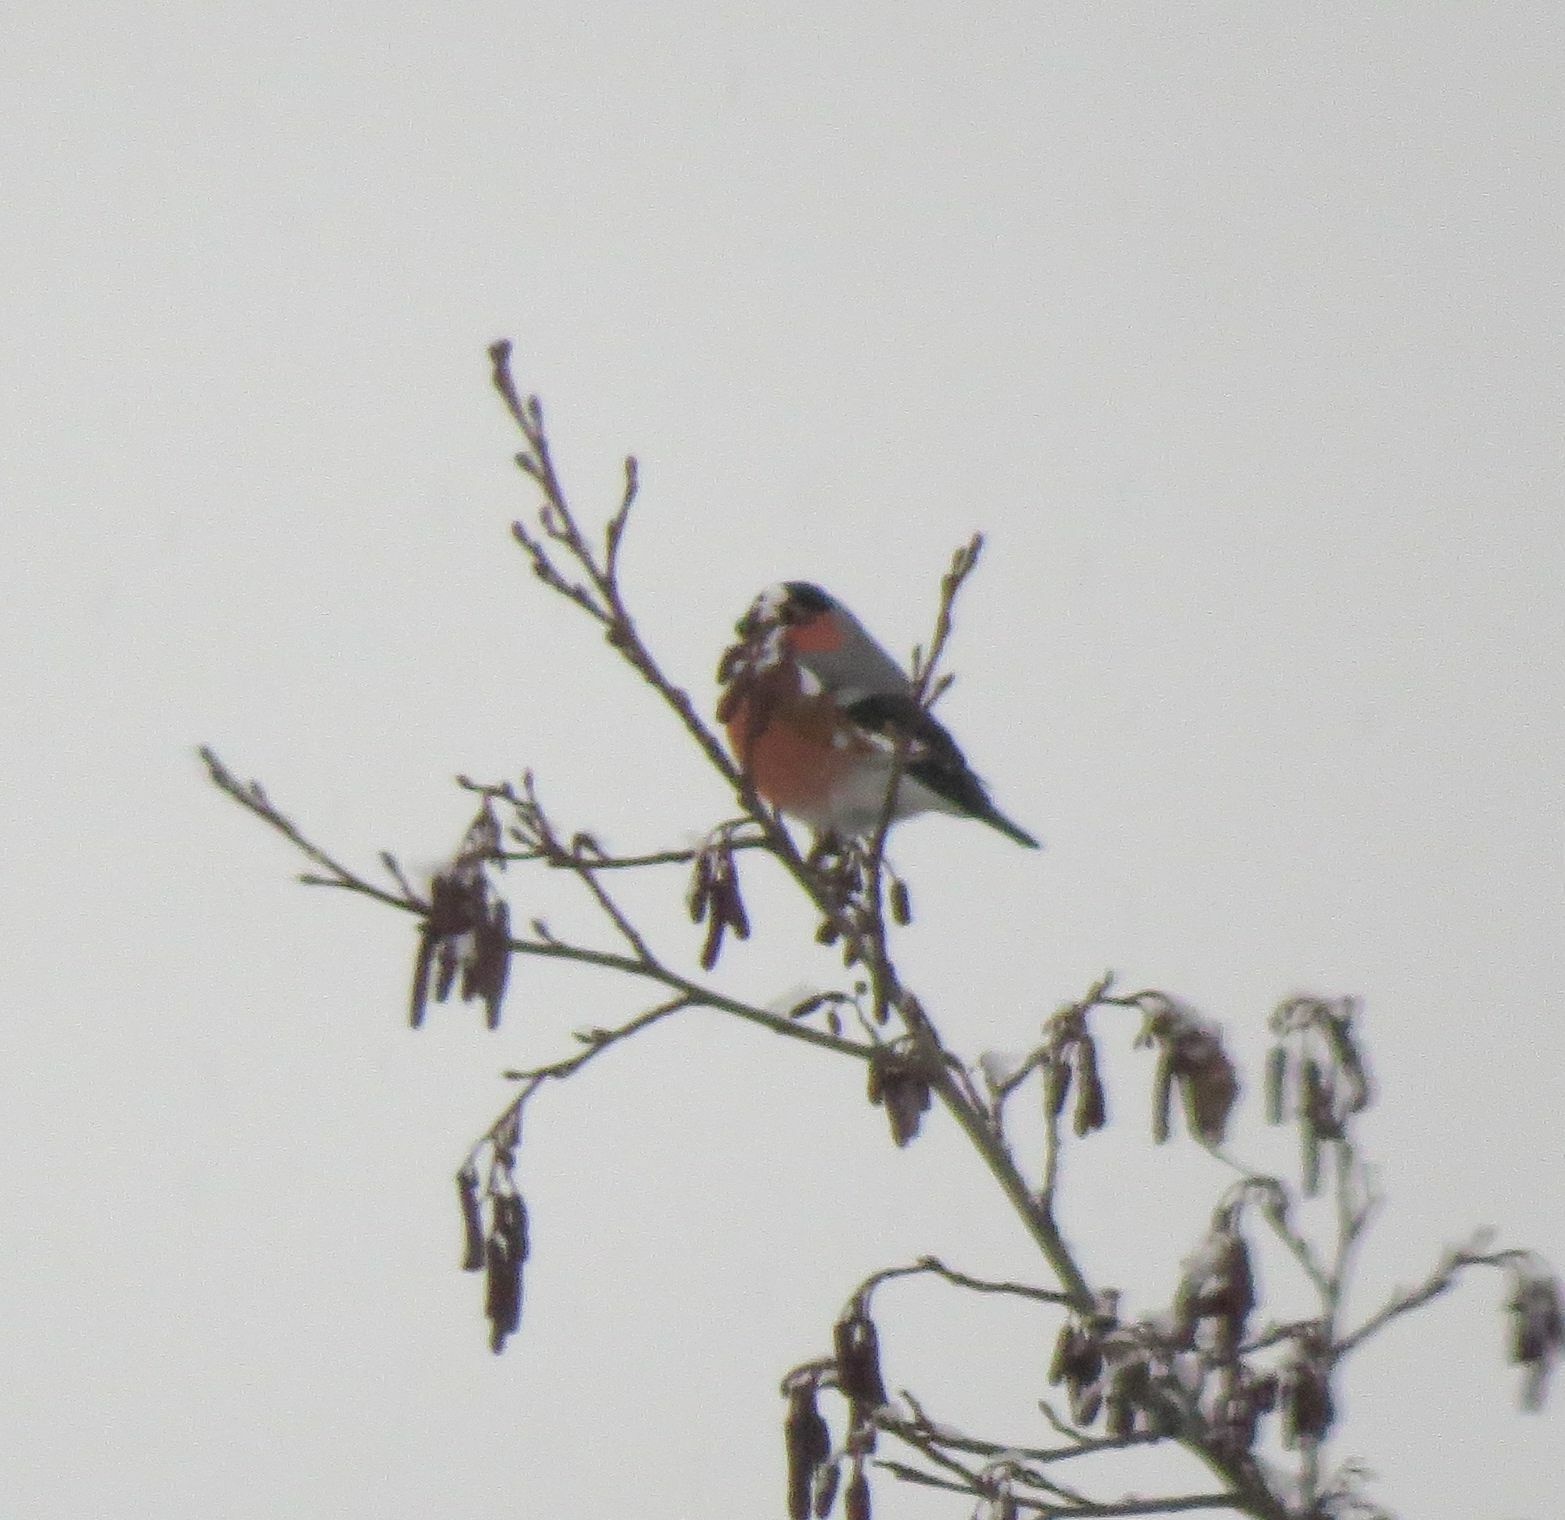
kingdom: Animalia
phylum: Chordata
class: Aves
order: Passeriformes
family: Fringillidae
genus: Pyrrhula
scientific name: Pyrrhula pyrrhula
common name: Eurasian bullfinch
